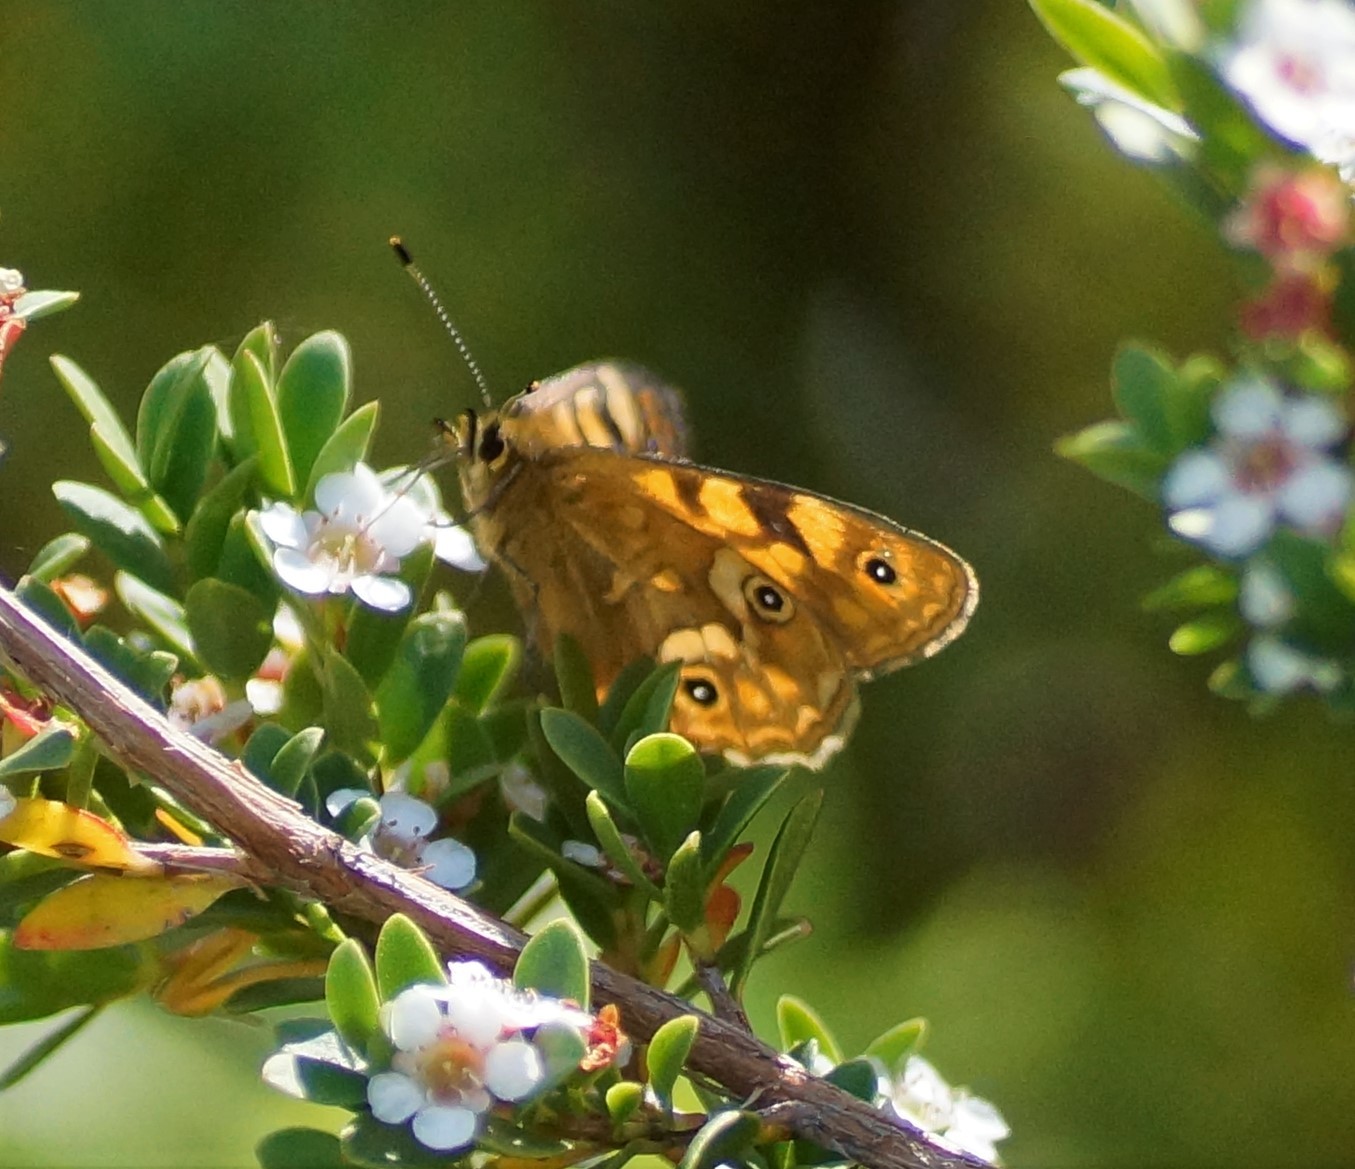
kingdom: Animalia
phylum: Arthropoda
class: Insecta
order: Lepidoptera
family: Nymphalidae
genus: Oreixenica
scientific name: Oreixenica correae
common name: Correa brown
